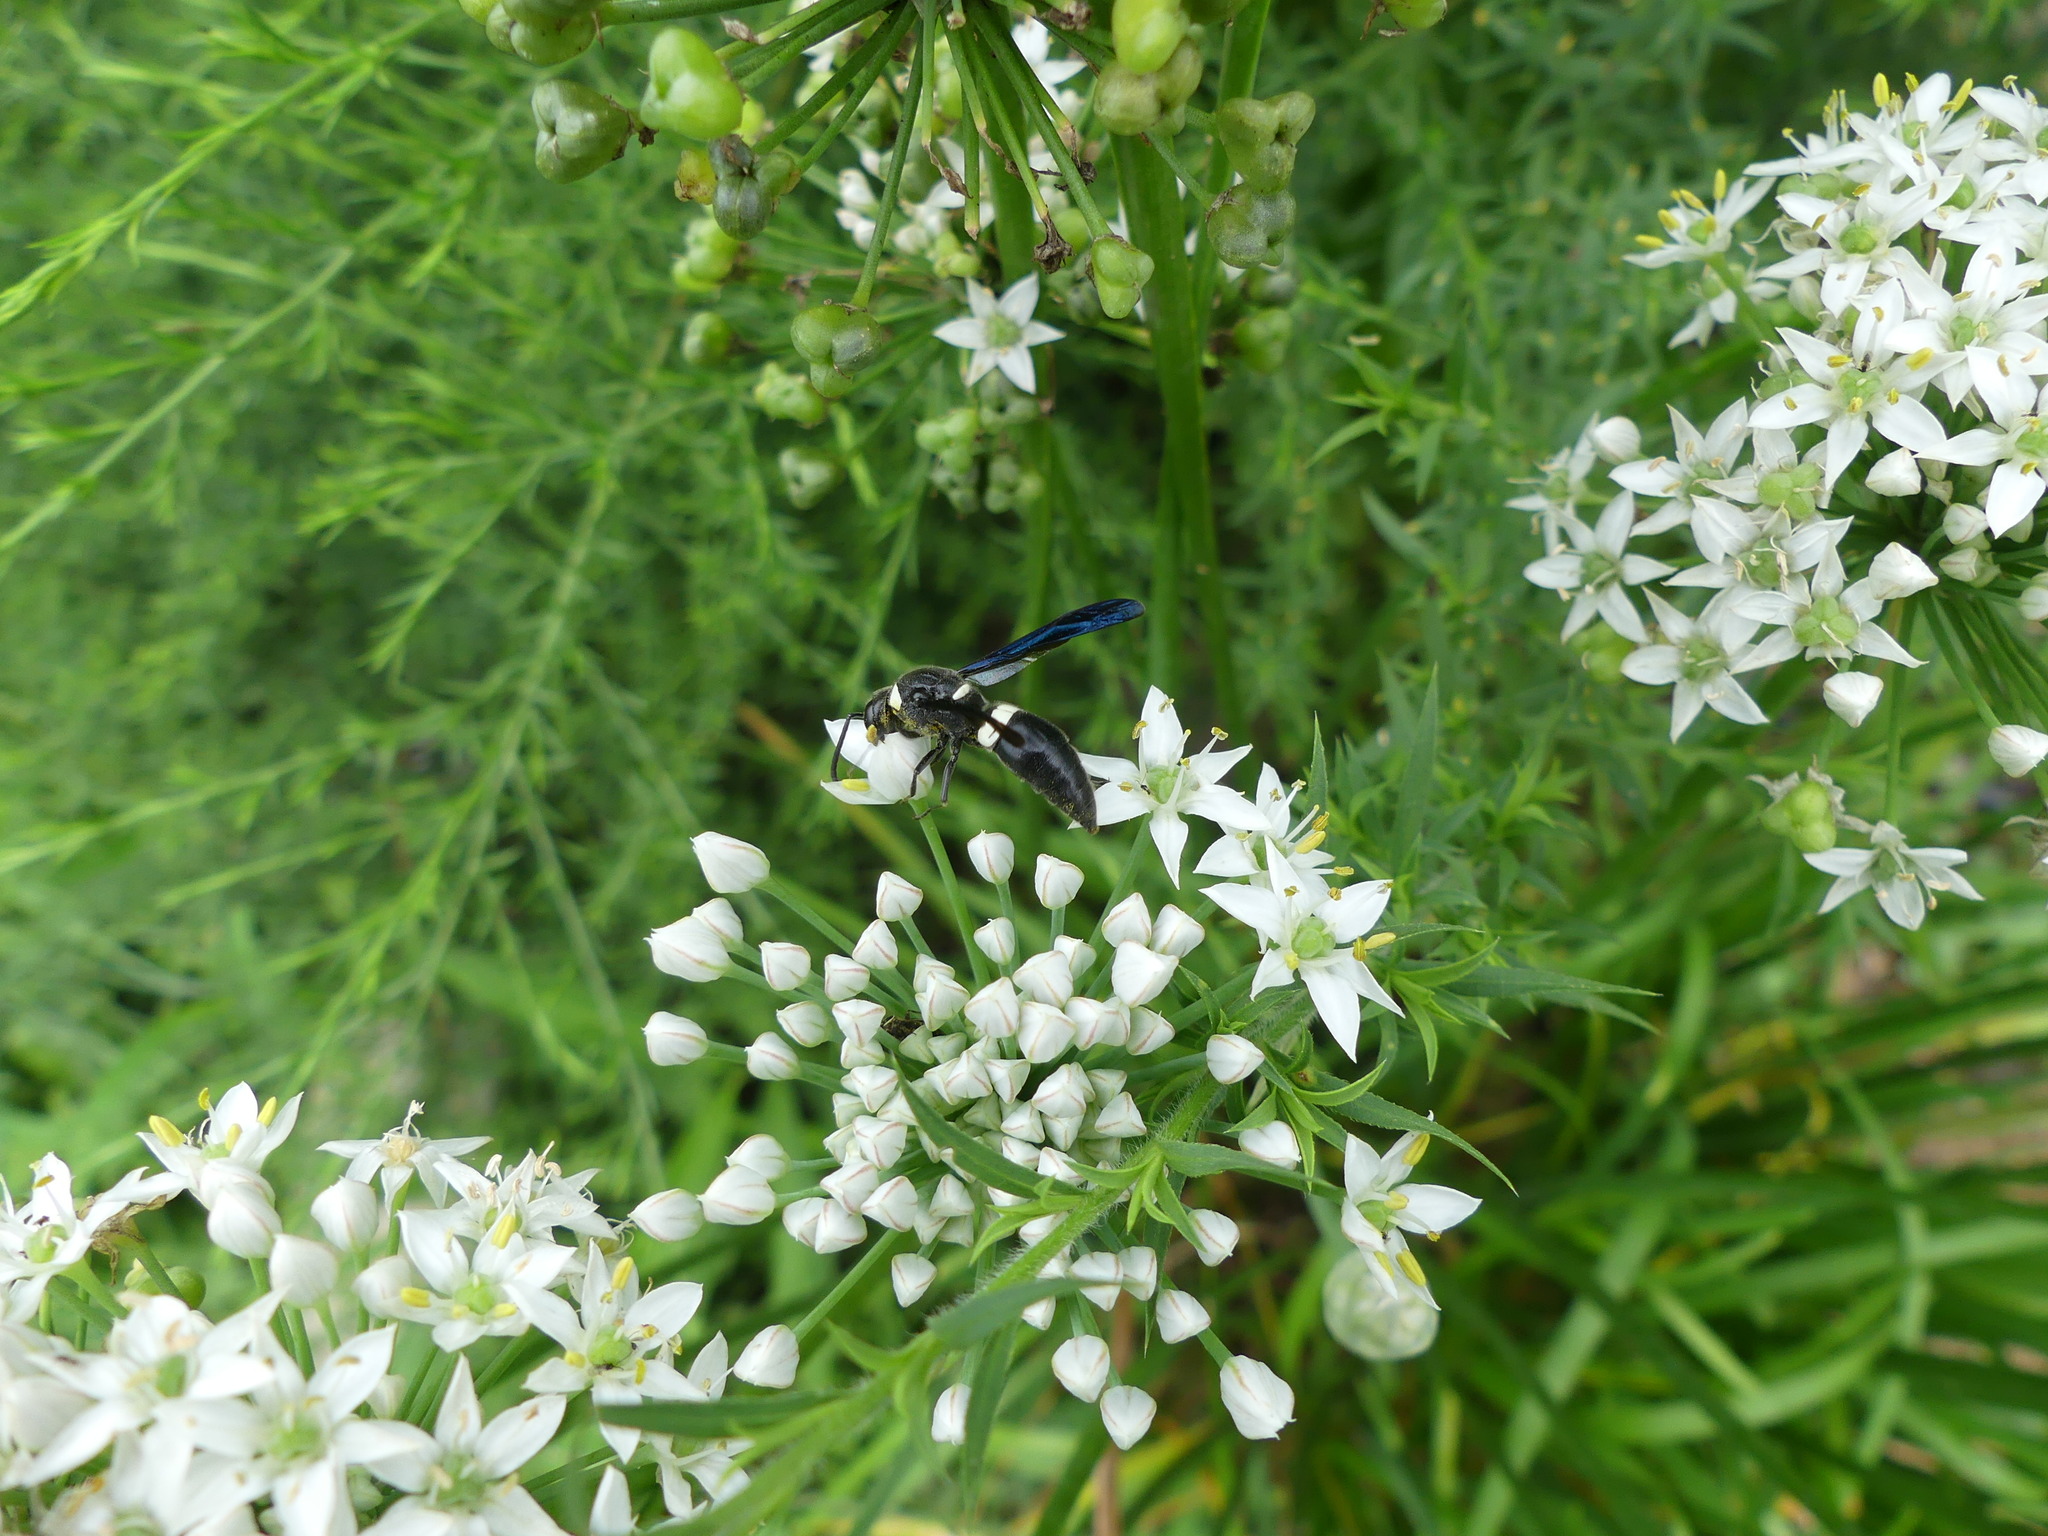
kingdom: Animalia
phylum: Arthropoda
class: Insecta
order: Hymenoptera
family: Eumenidae
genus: Monobia
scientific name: Monobia quadridens
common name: Four-toothed mason wasp
